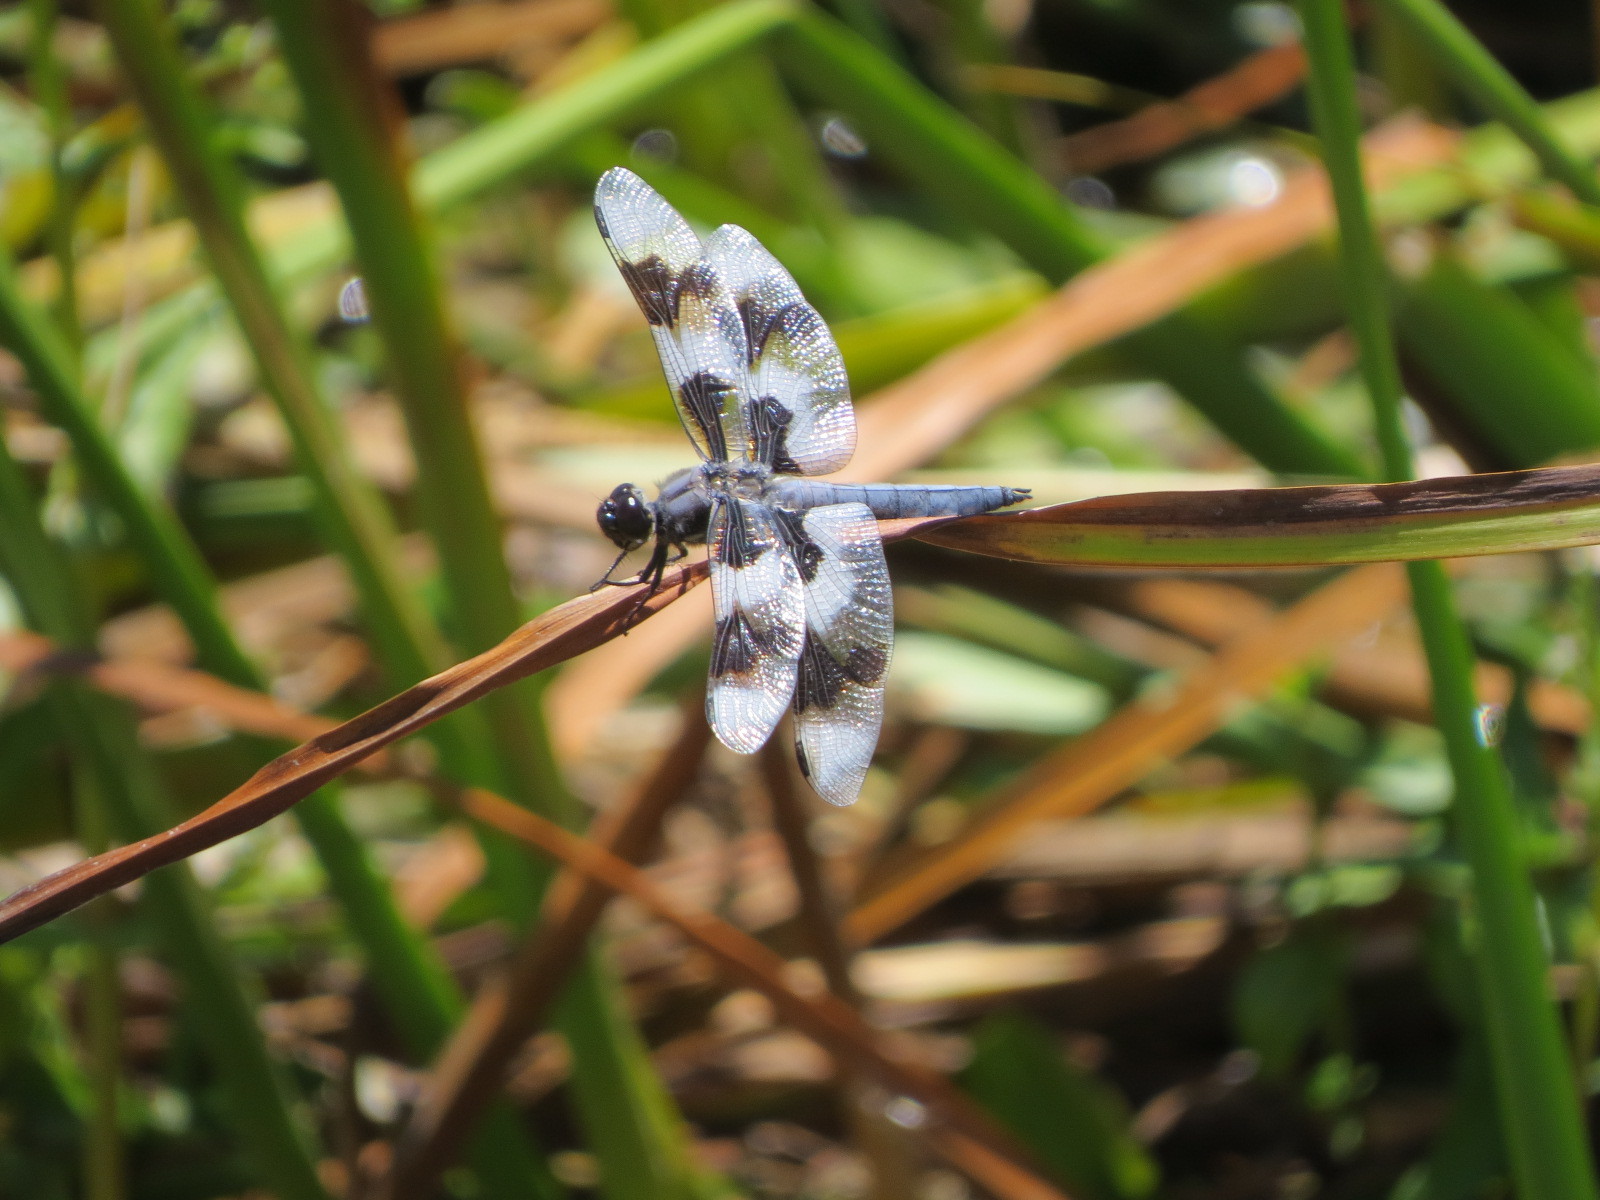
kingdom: Animalia
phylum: Arthropoda
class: Insecta
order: Odonata
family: Libellulidae
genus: Libellula
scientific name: Libellula forensis
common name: Eight-spotted skimmer
